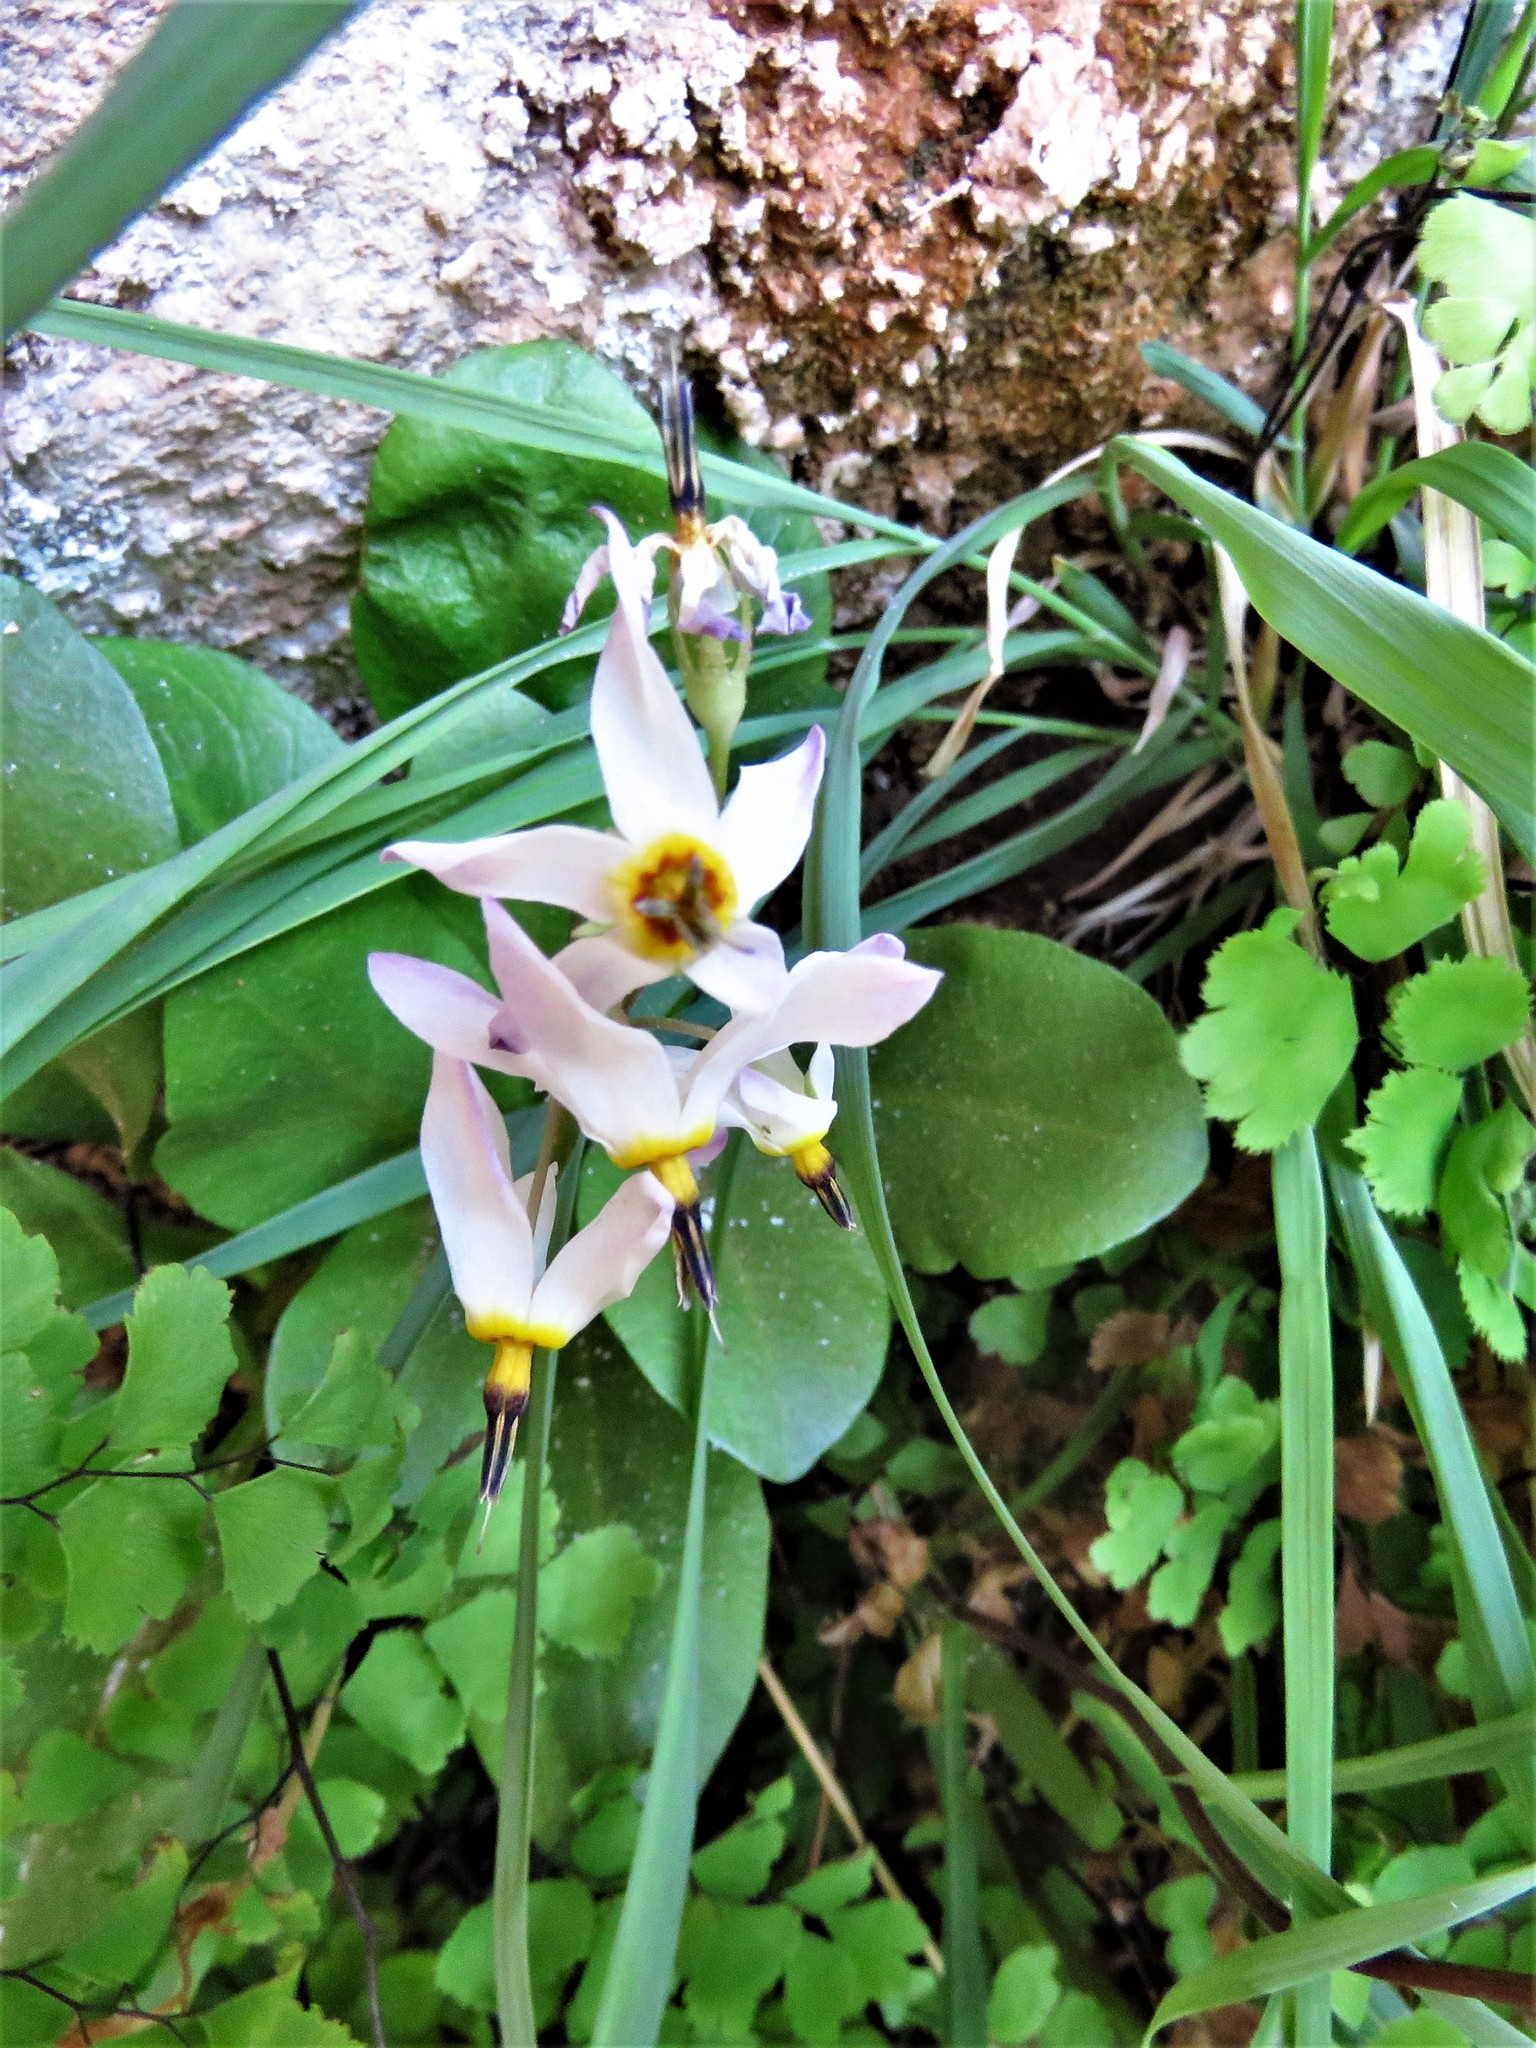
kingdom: Plantae
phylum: Tracheophyta
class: Magnoliopsida
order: Ericales
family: Primulaceae
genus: Dodecatheon
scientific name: Dodecatheon pulchellum
